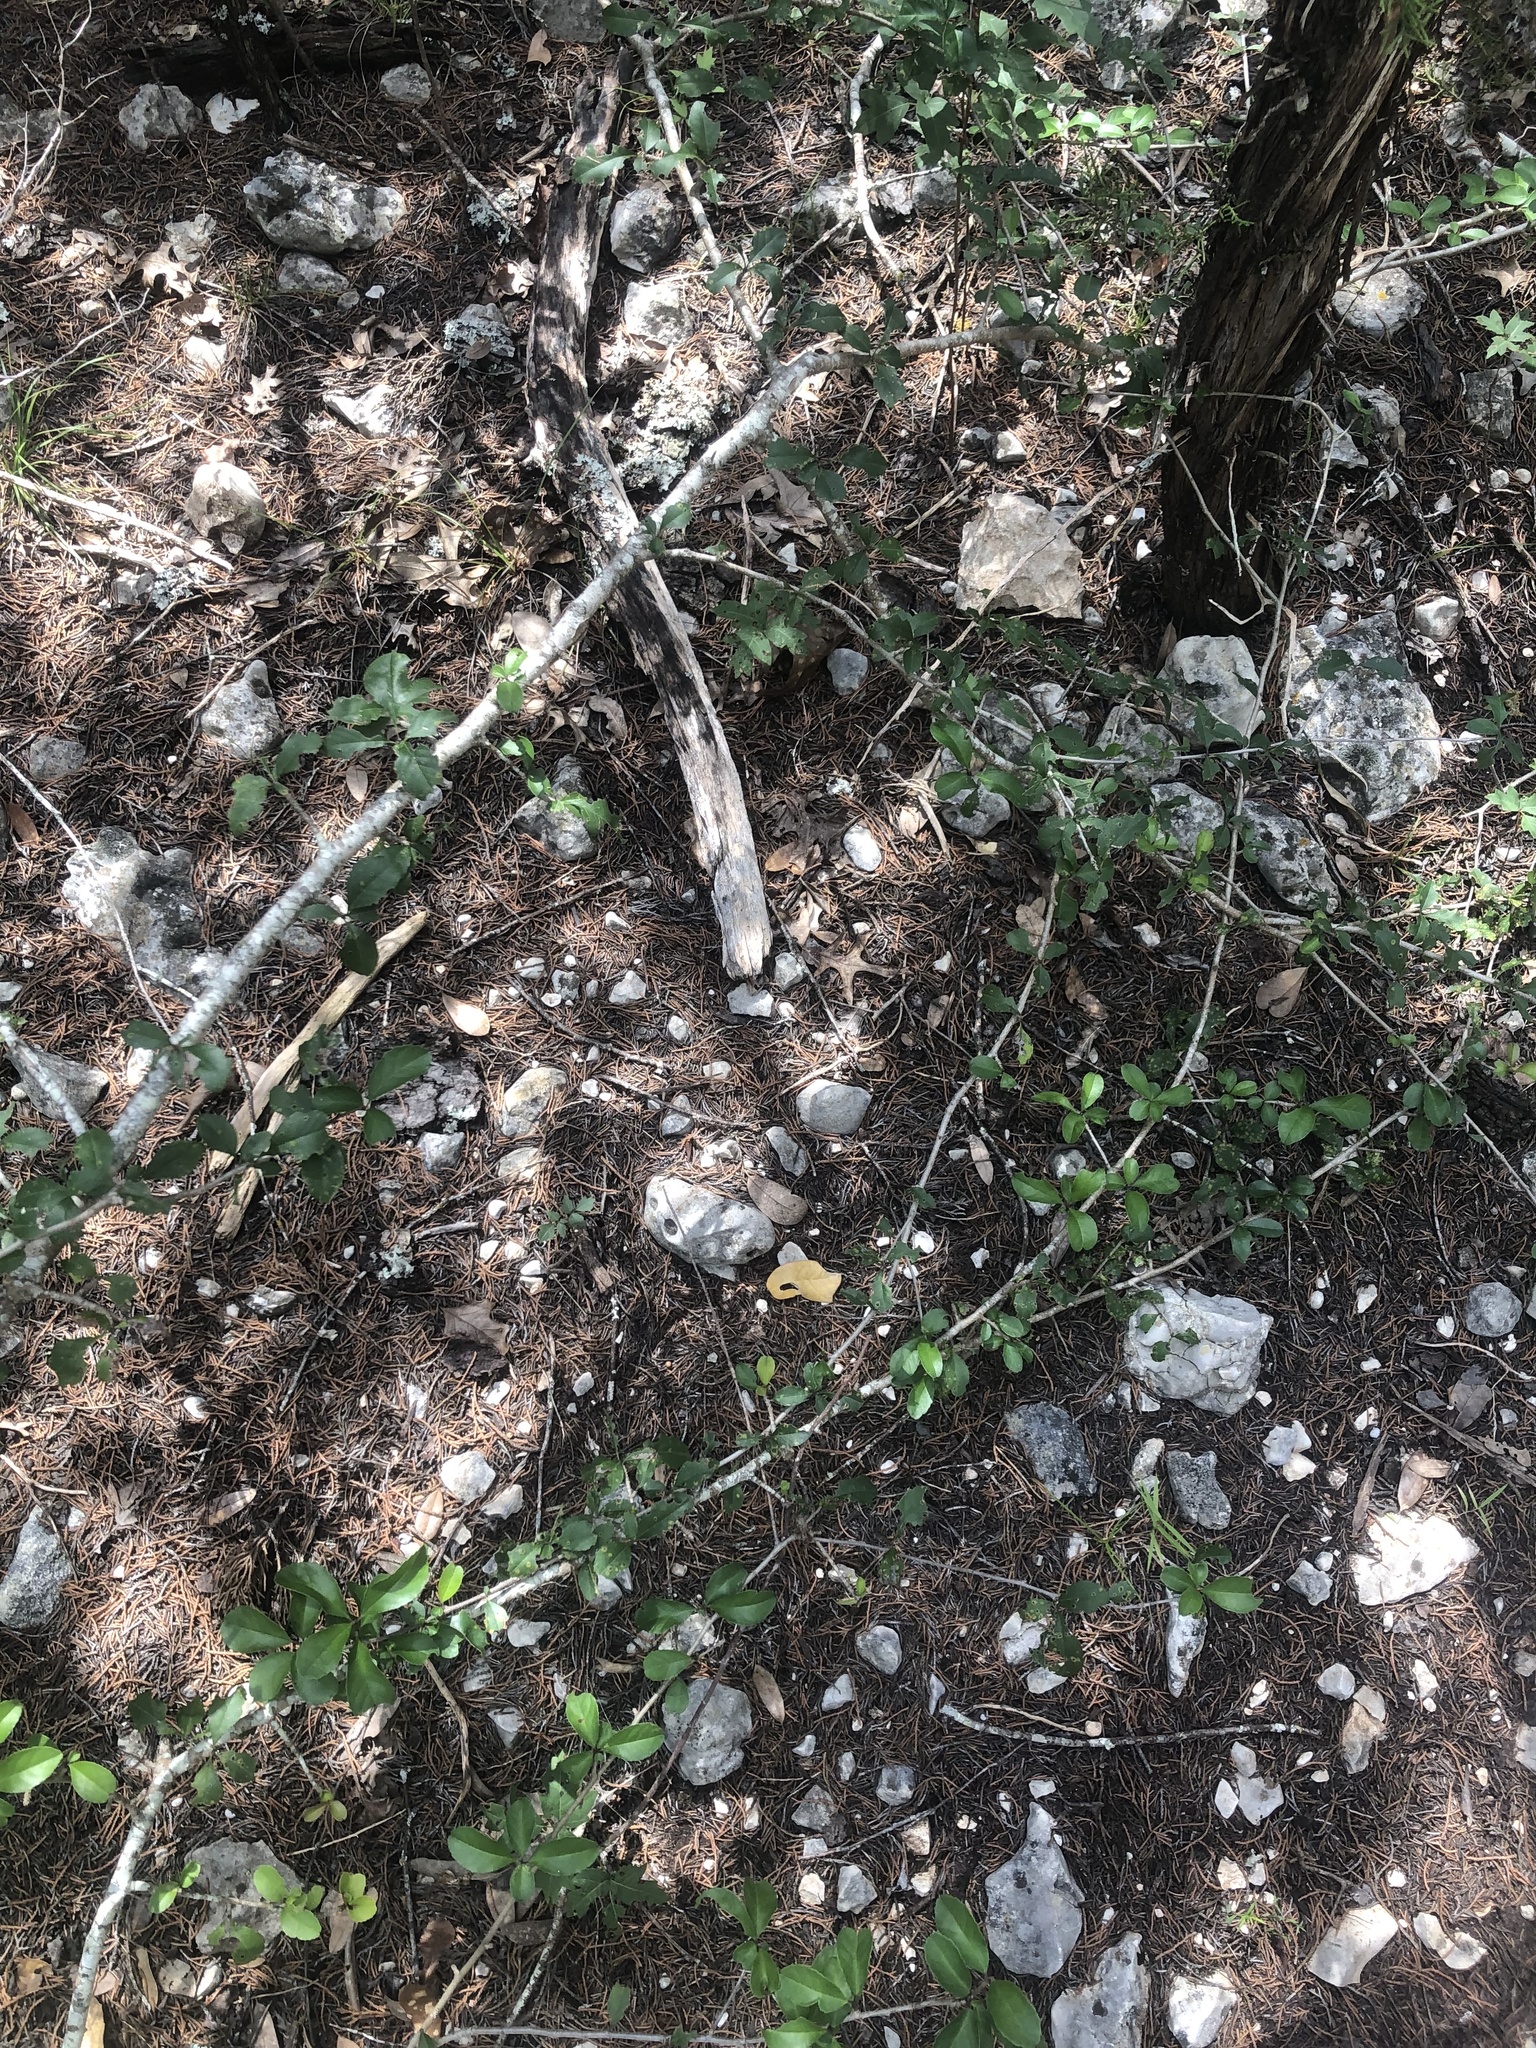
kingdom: Plantae
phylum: Tracheophyta
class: Magnoliopsida
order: Aquifoliales
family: Aquifoliaceae
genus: Ilex
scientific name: Ilex decidua
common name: Possum-haw
